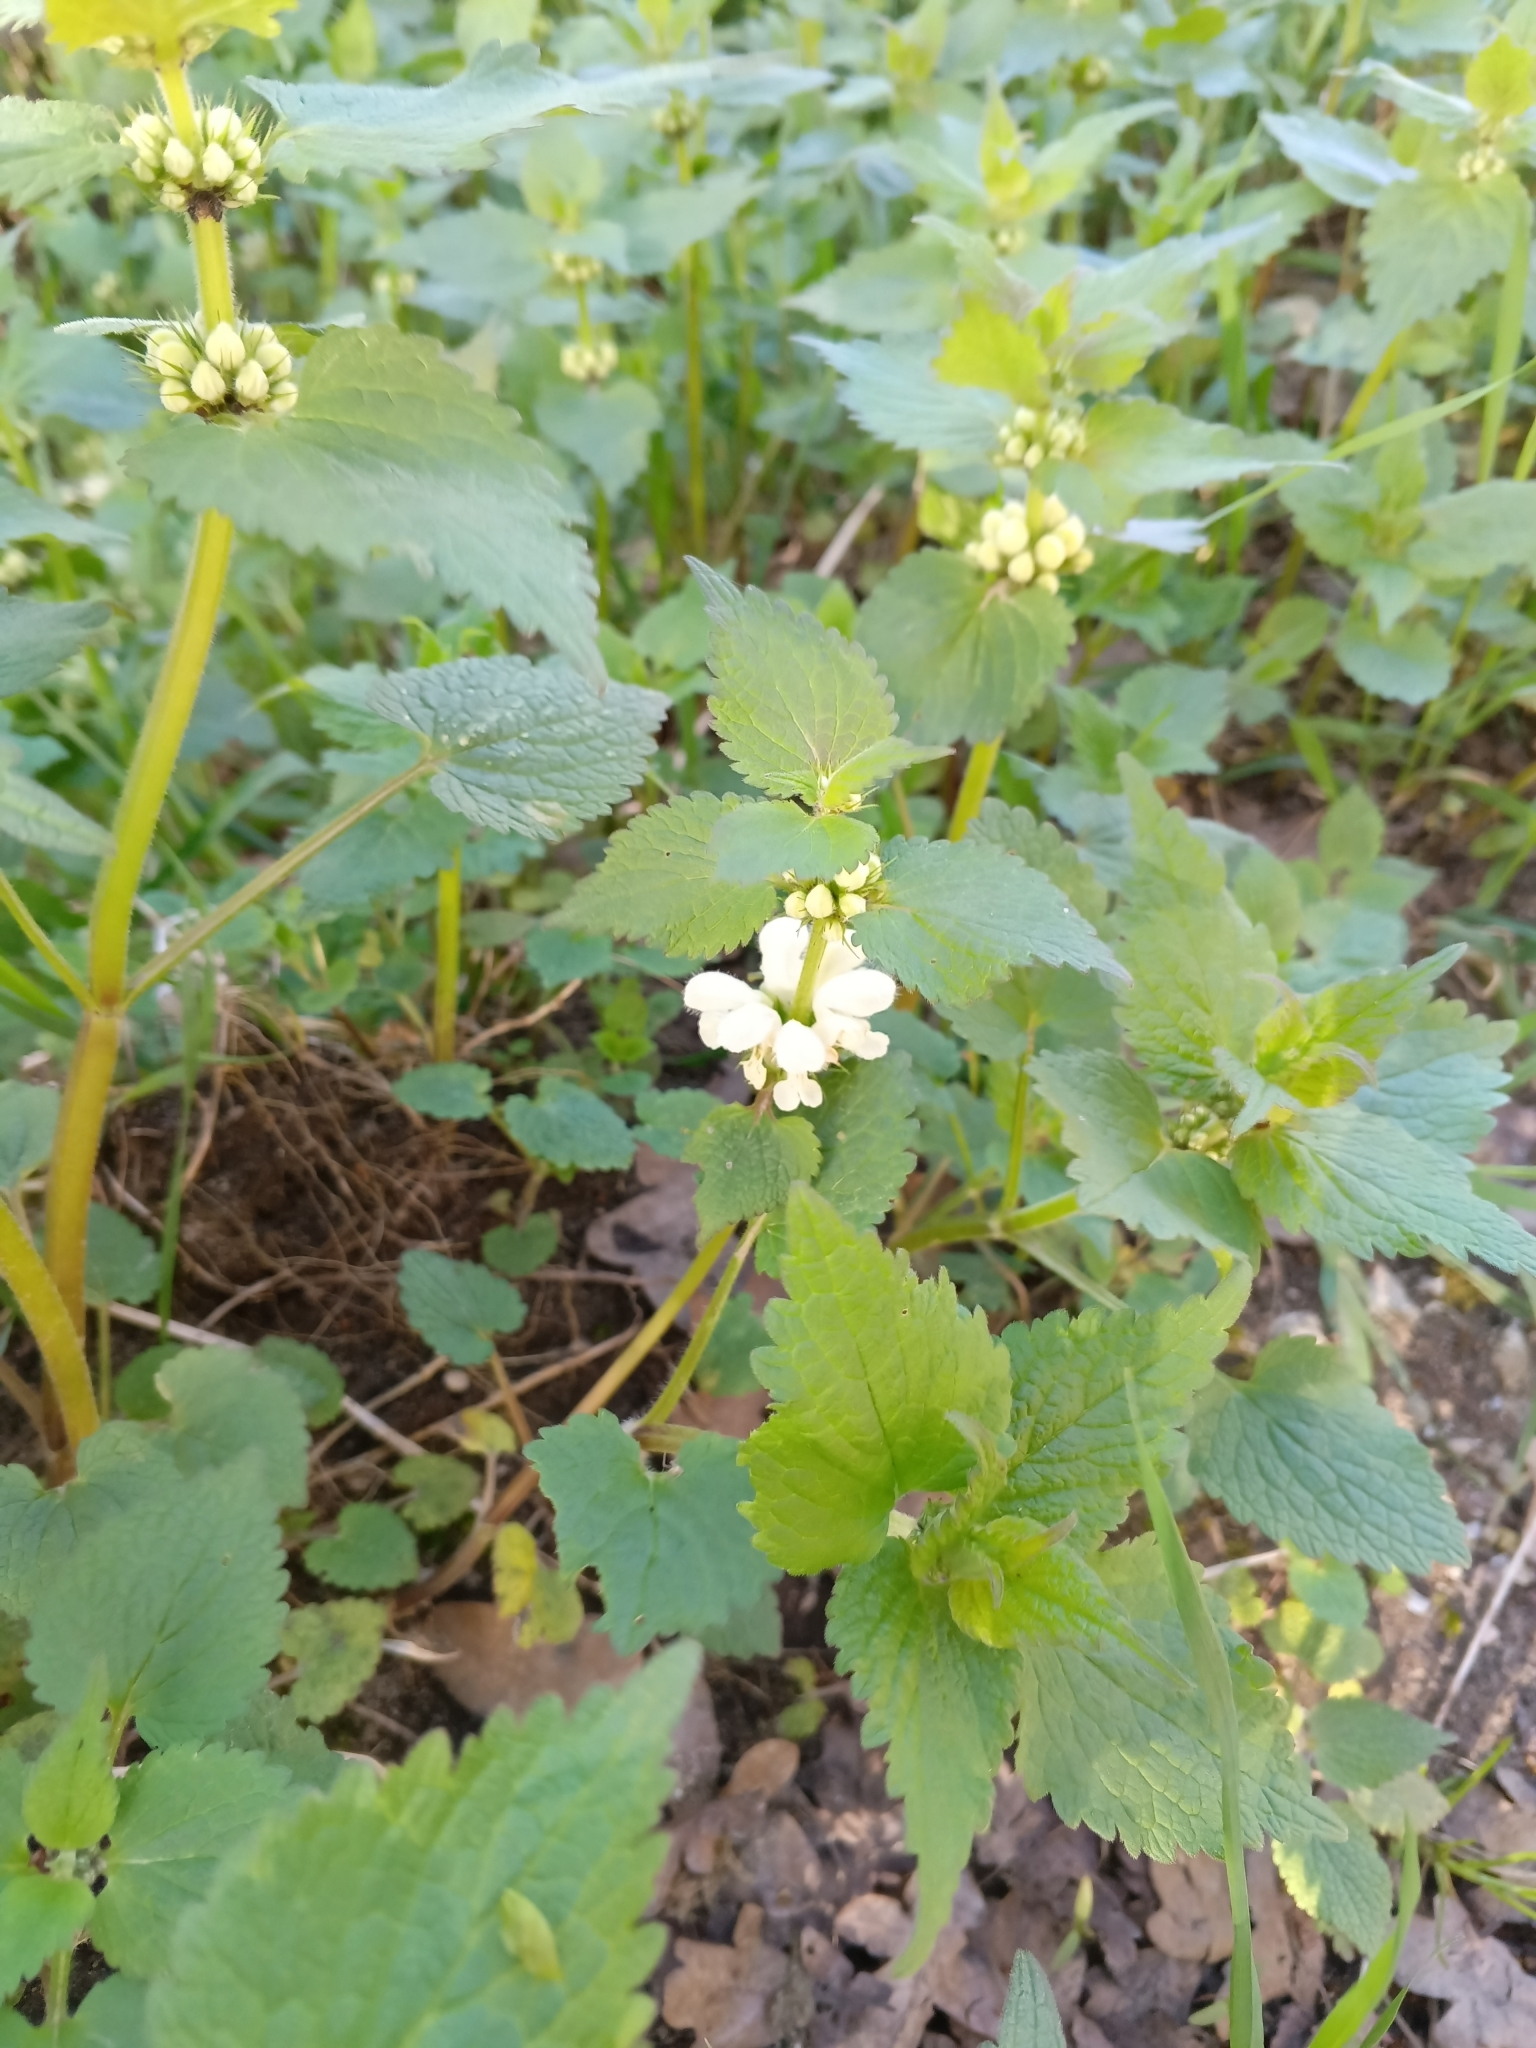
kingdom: Plantae
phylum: Tracheophyta
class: Magnoliopsida
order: Lamiales
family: Lamiaceae
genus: Lamium
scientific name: Lamium album
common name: White dead-nettle
